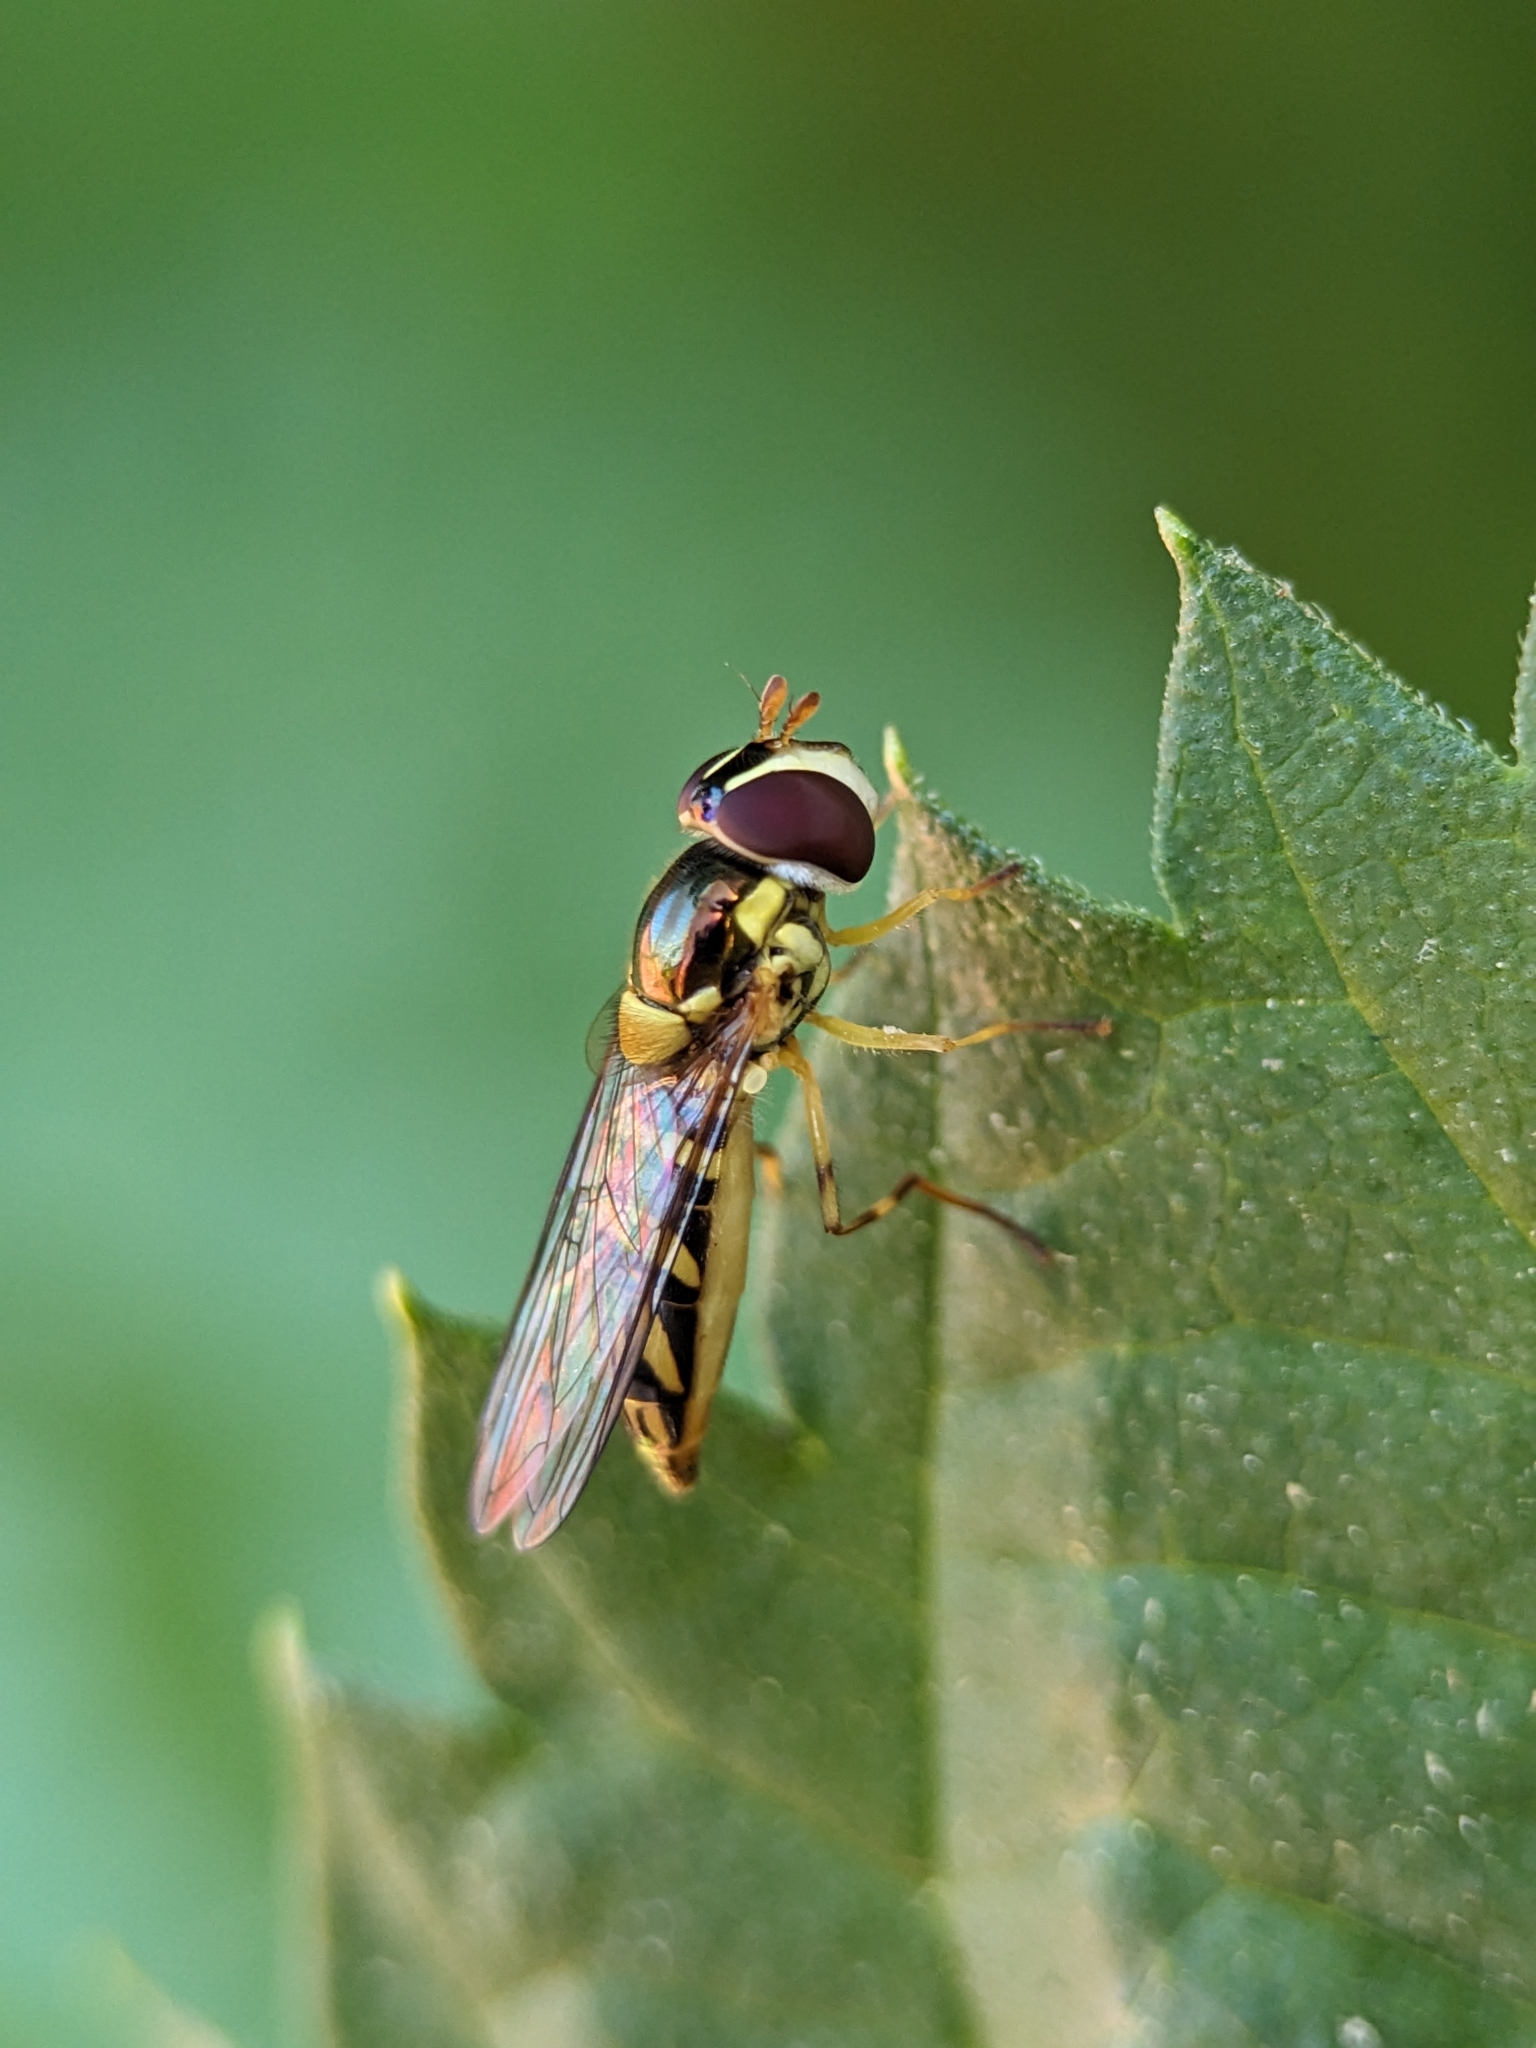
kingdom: Animalia
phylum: Arthropoda
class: Insecta
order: Diptera
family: Syrphidae
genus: Allograpta
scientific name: Allograpta obliqua
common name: Common oblique syrphid
